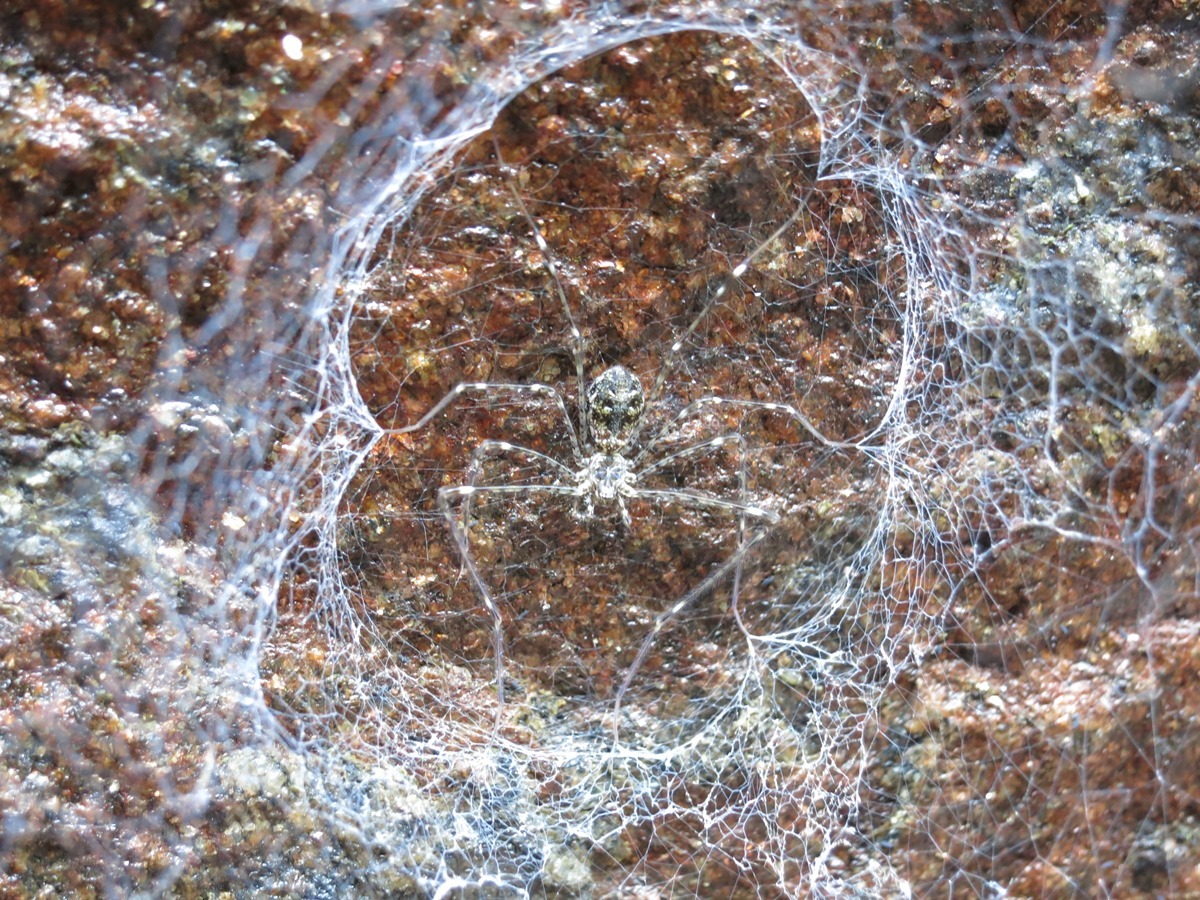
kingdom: Animalia
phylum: Arthropoda
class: Arachnida
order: Araneae
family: Hypochilidae
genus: Hypochilus
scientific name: Hypochilus sheari
